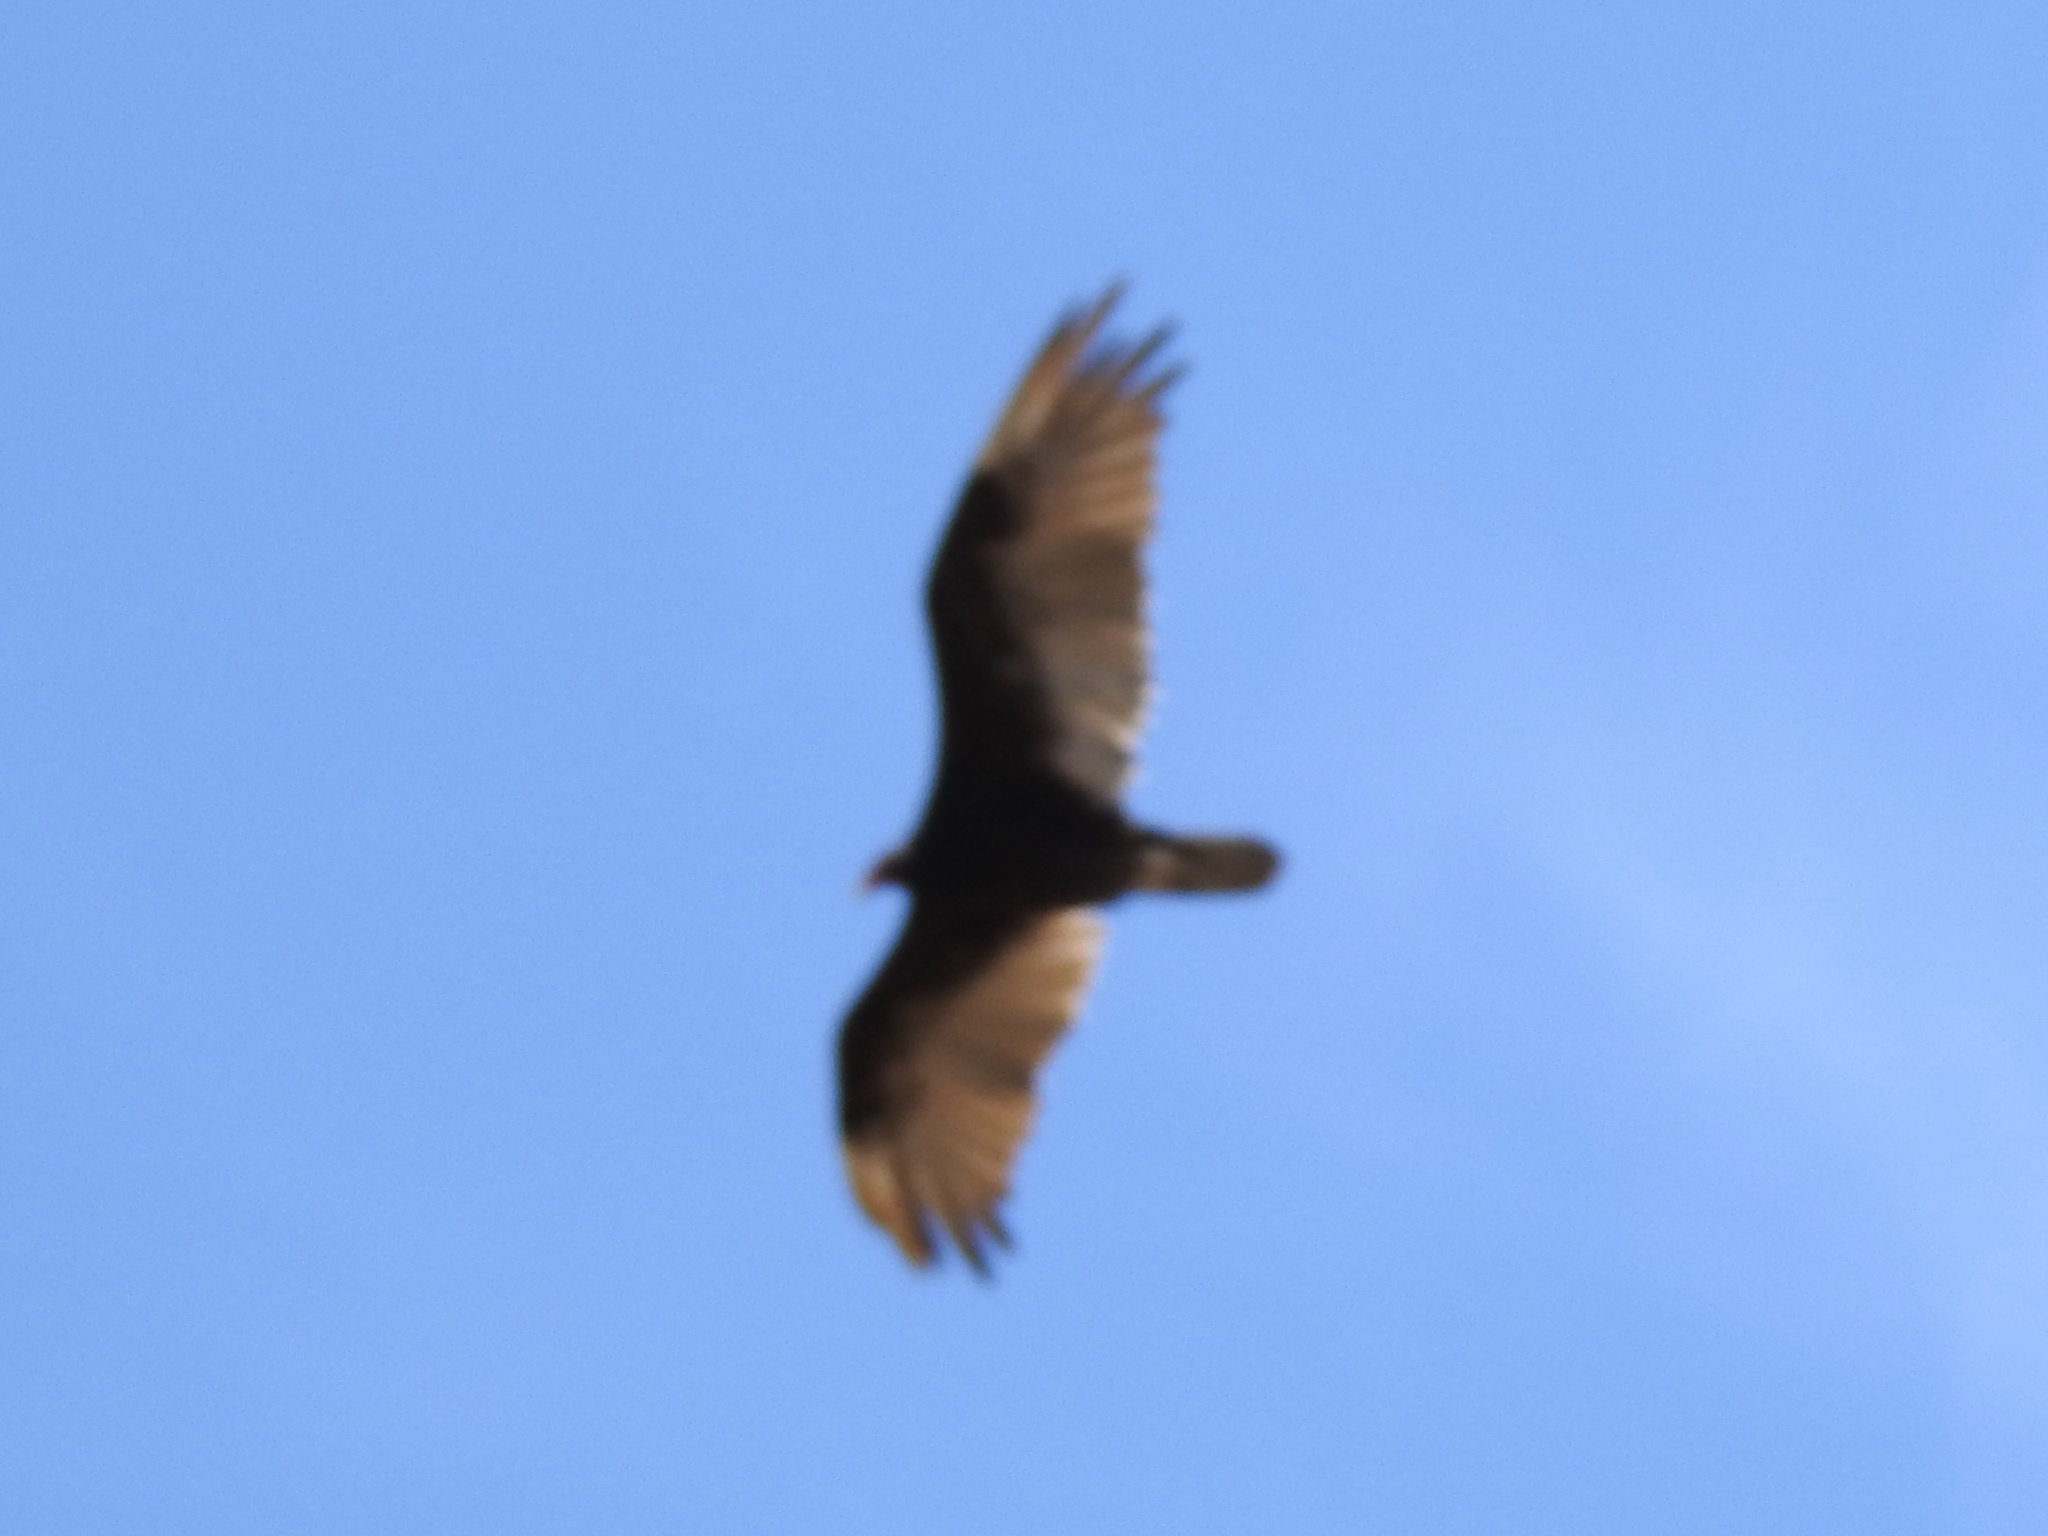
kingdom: Animalia
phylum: Chordata
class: Aves
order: Accipitriformes
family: Cathartidae
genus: Cathartes
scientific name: Cathartes aura
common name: Turkey vulture
